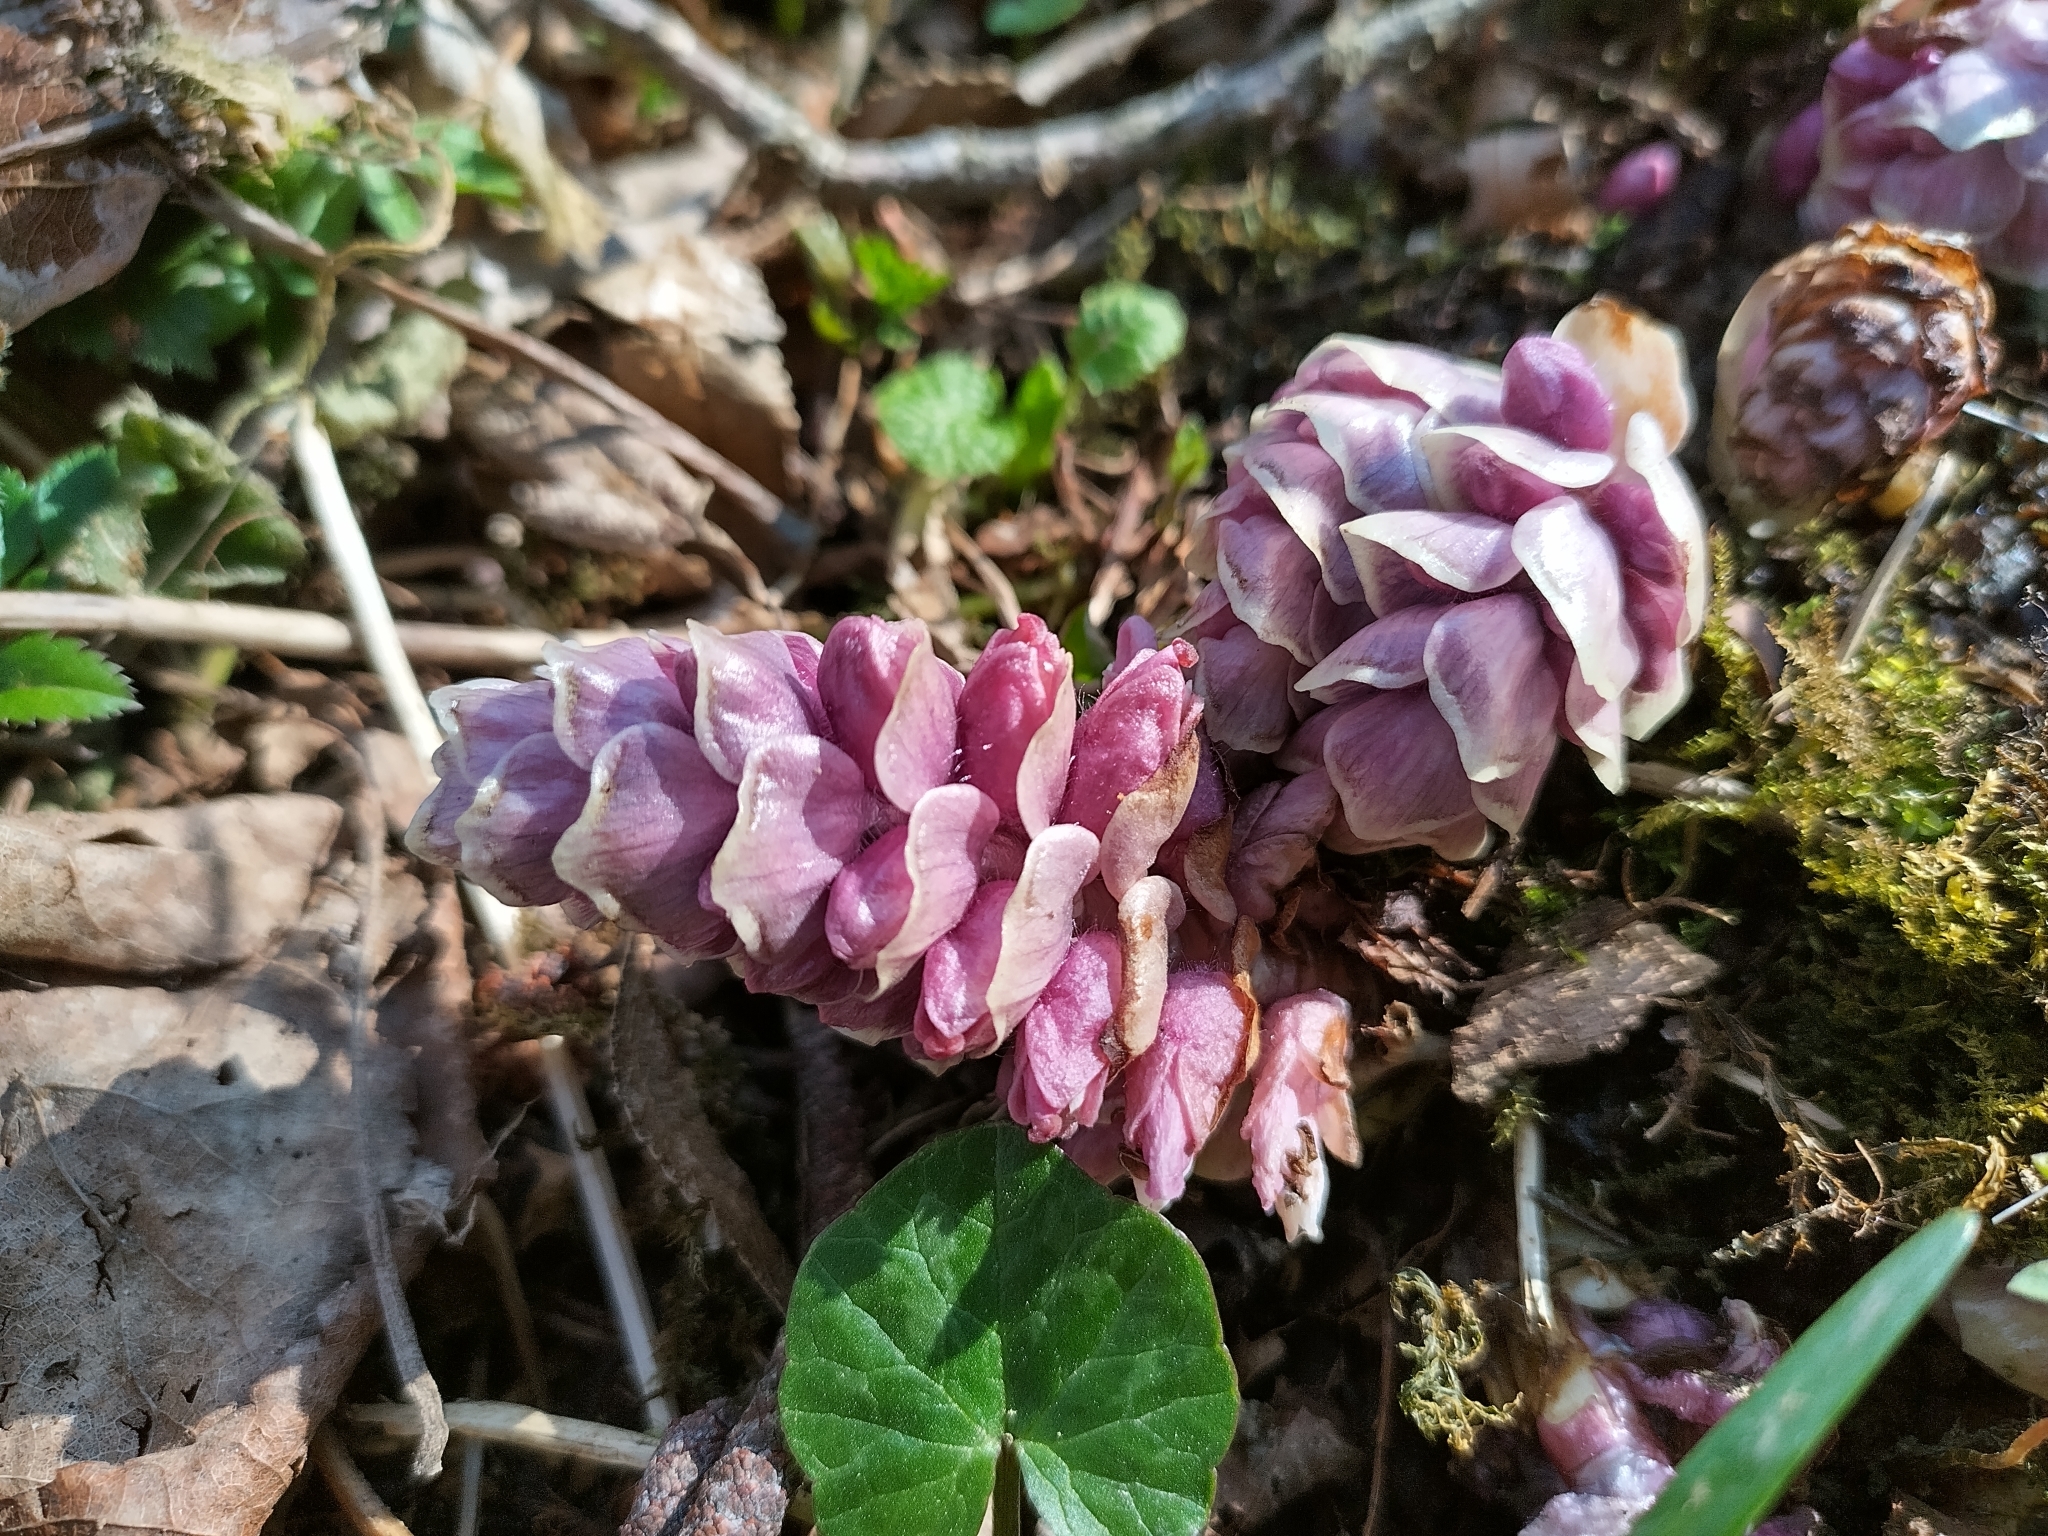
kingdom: Plantae
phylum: Tracheophyta
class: Magnoliopsida
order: Lamiales
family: Orobanchaceae
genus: Lathraea
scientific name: Lathraea squamaria
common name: Toothwort
